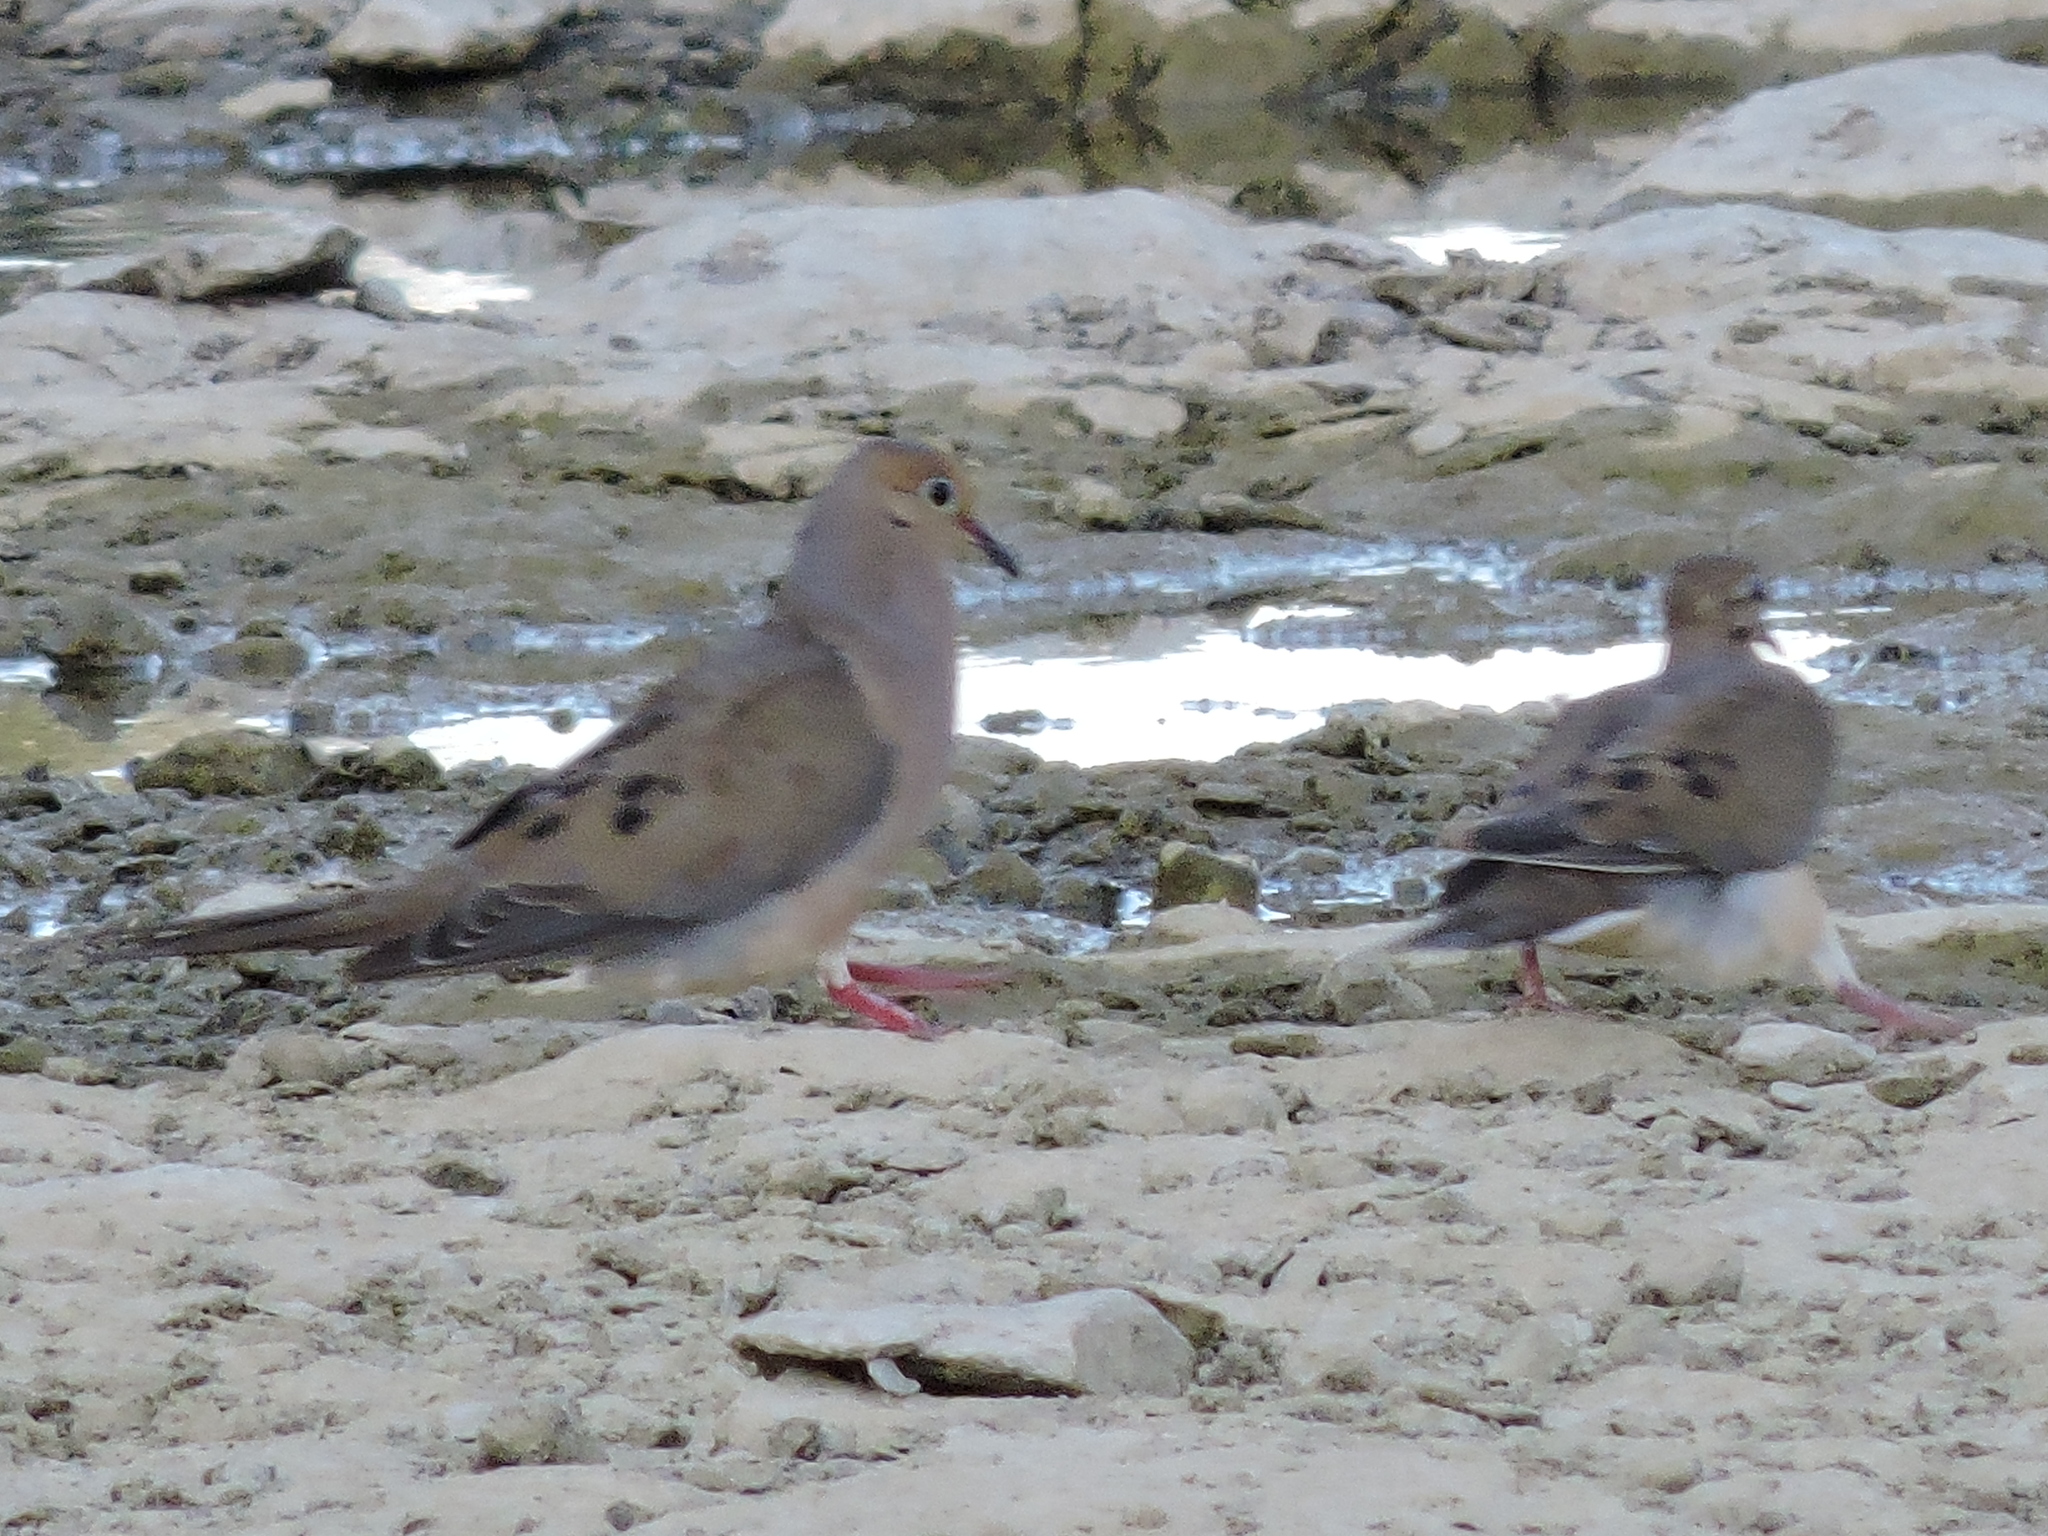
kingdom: Animalia
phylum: Chordata
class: Aves
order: Columbiformes
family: Columbidae
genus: Zenaida
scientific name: Zenaida macroura
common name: Mourning dove
